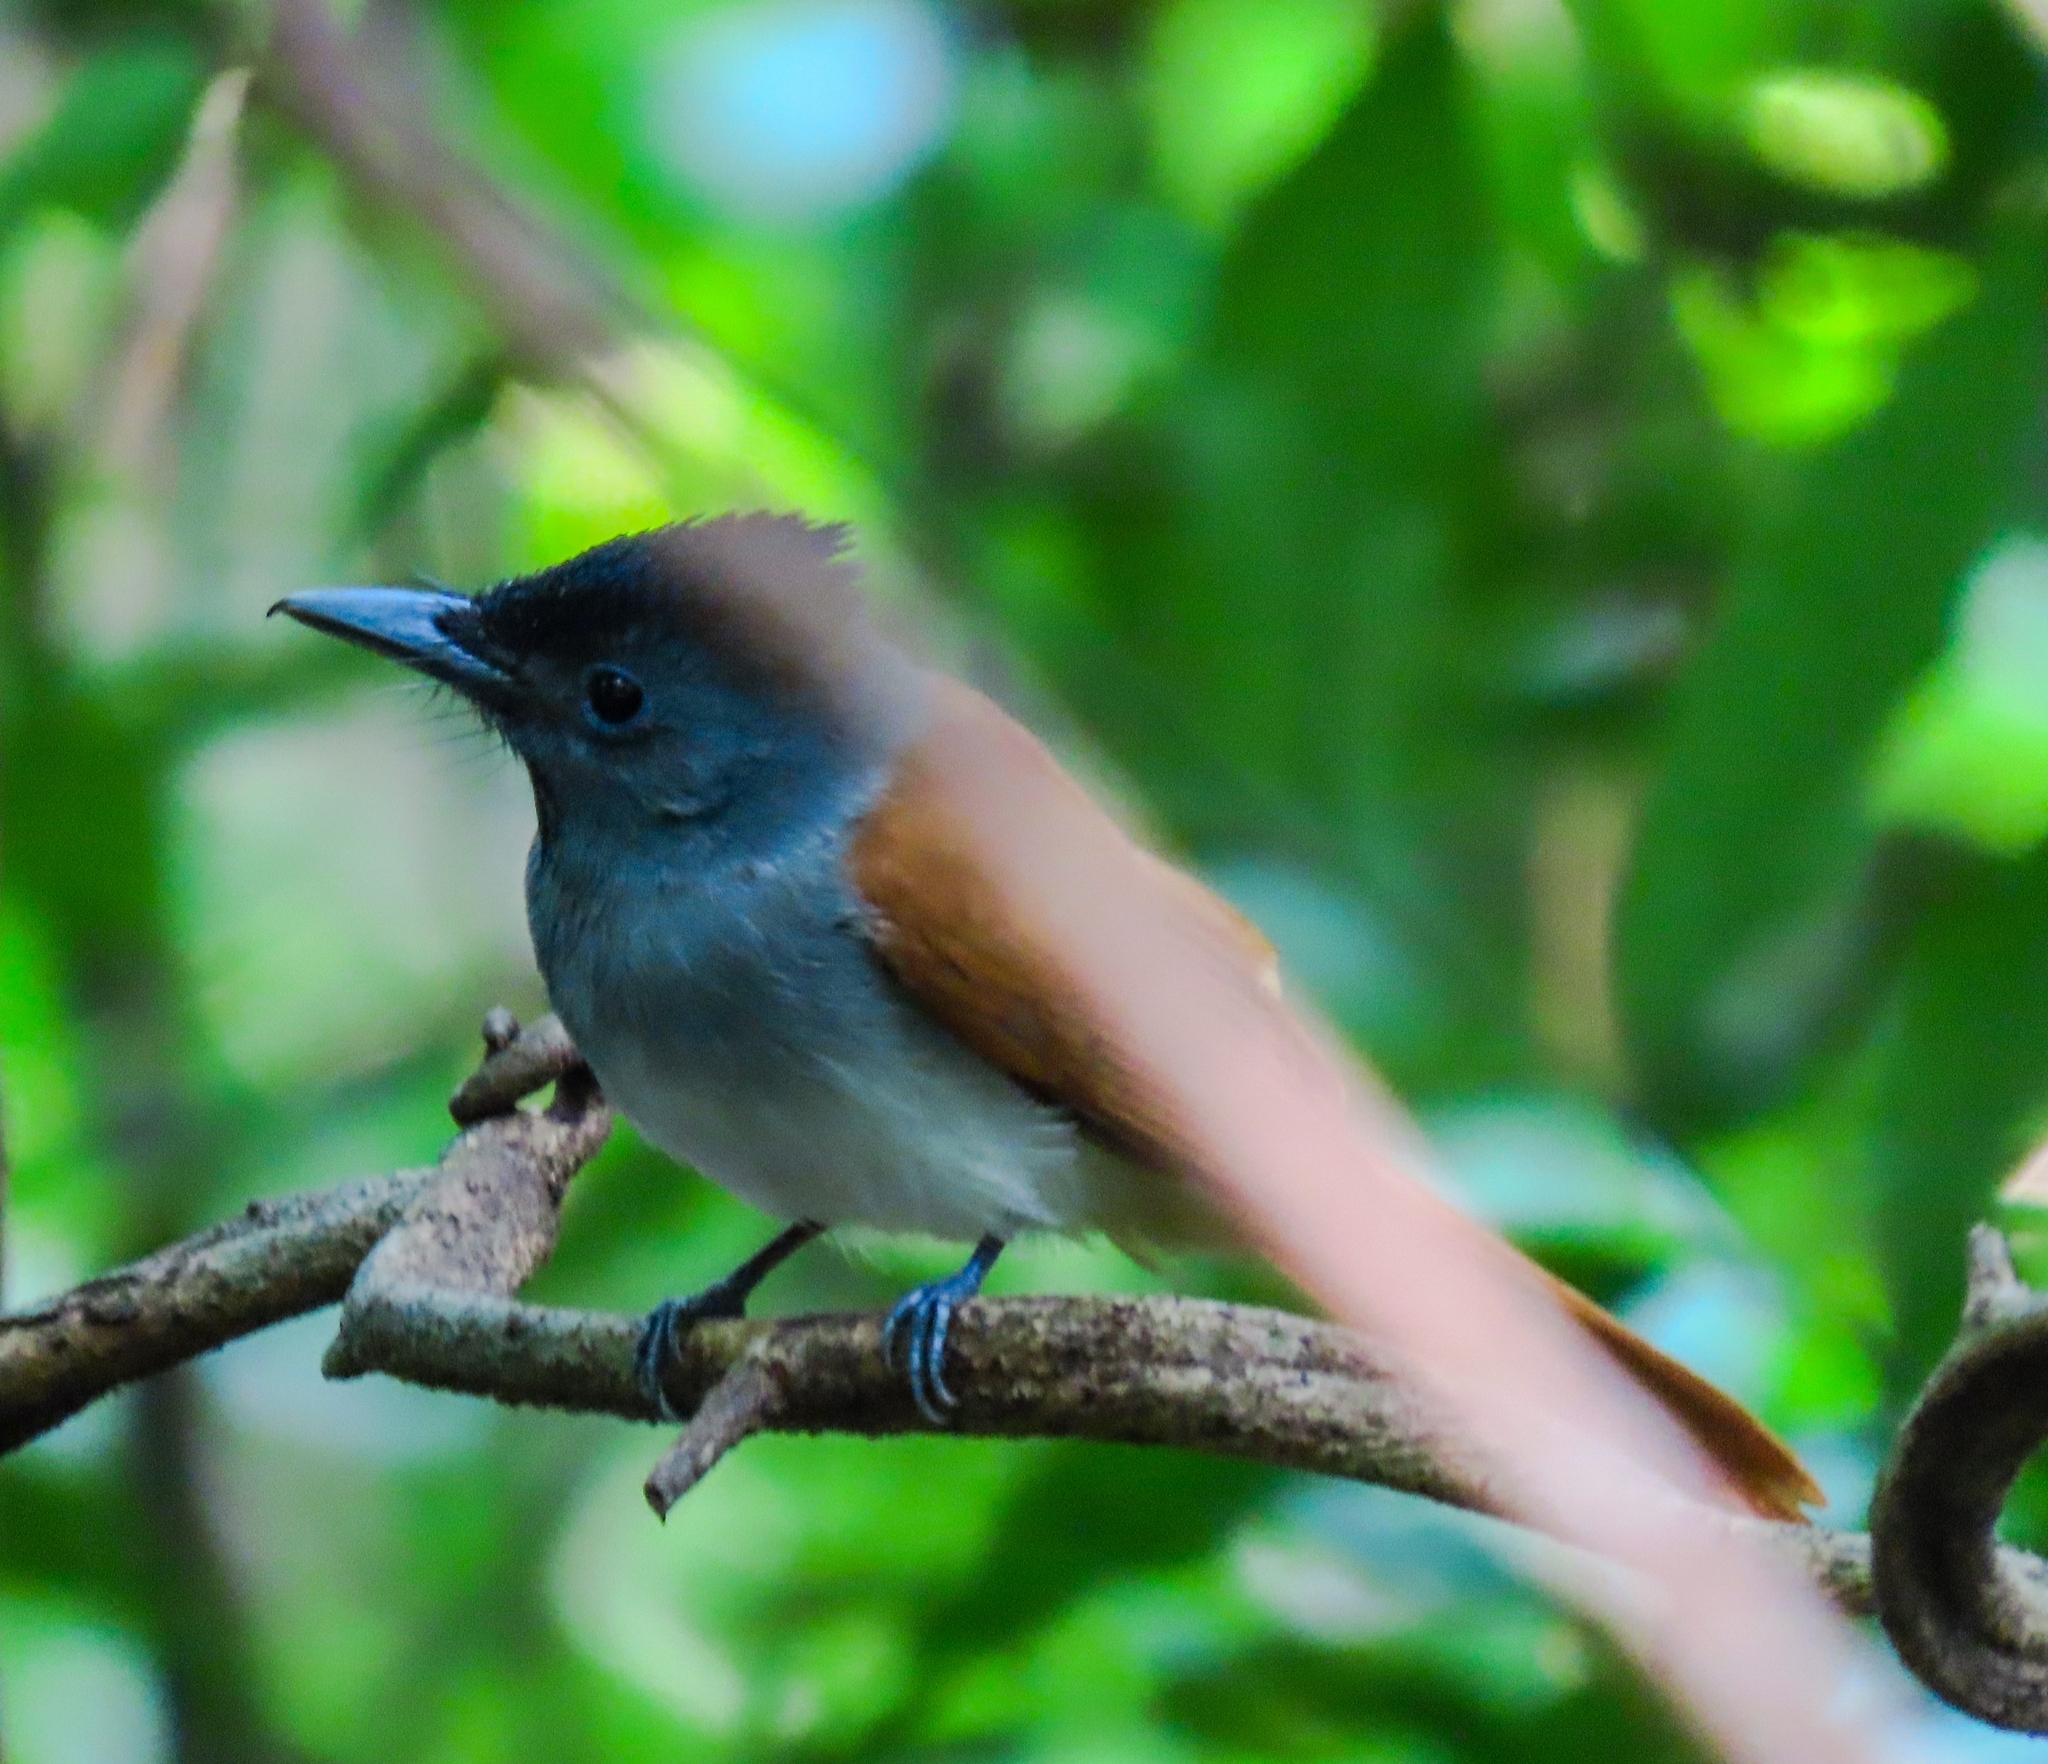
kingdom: Animalia
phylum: Chordata
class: Aves
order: Passeriformes
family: Monarchidae
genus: Terpsiphone
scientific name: Terpsiphone paradisi
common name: Indian paradise flycatcher
